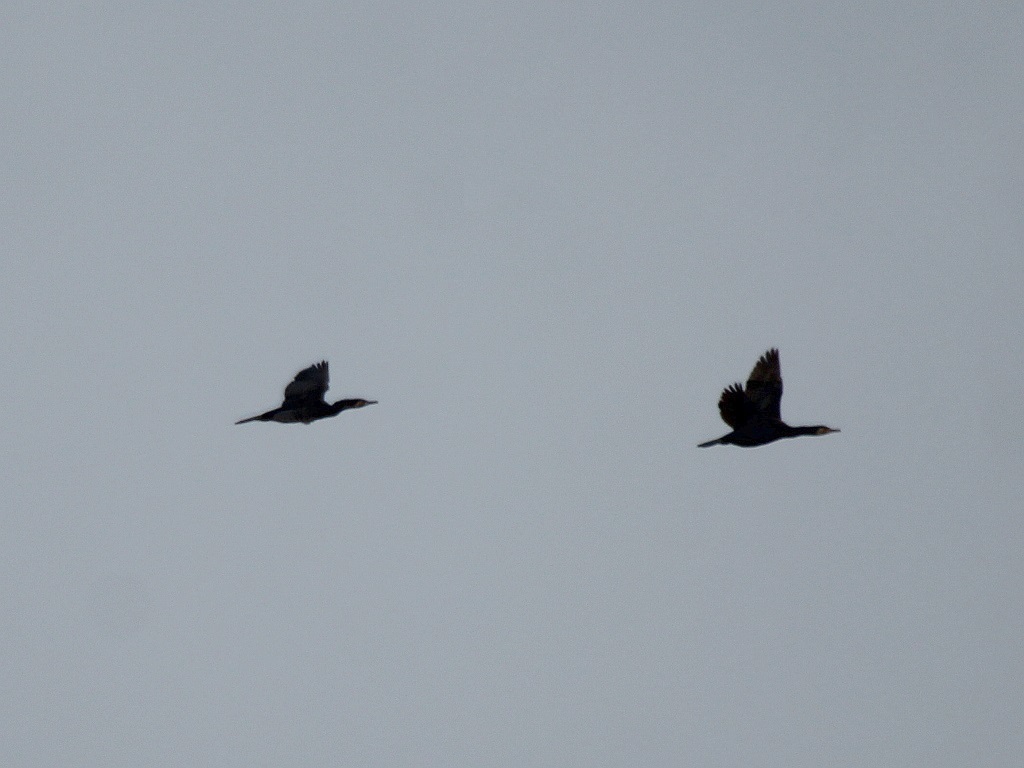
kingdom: Animalia
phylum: Chordata
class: Aves
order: Suliformes
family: Phalacrocoracidae
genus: Phalacrocorax
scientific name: Phalacrocorax carbo
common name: Great cormorant
